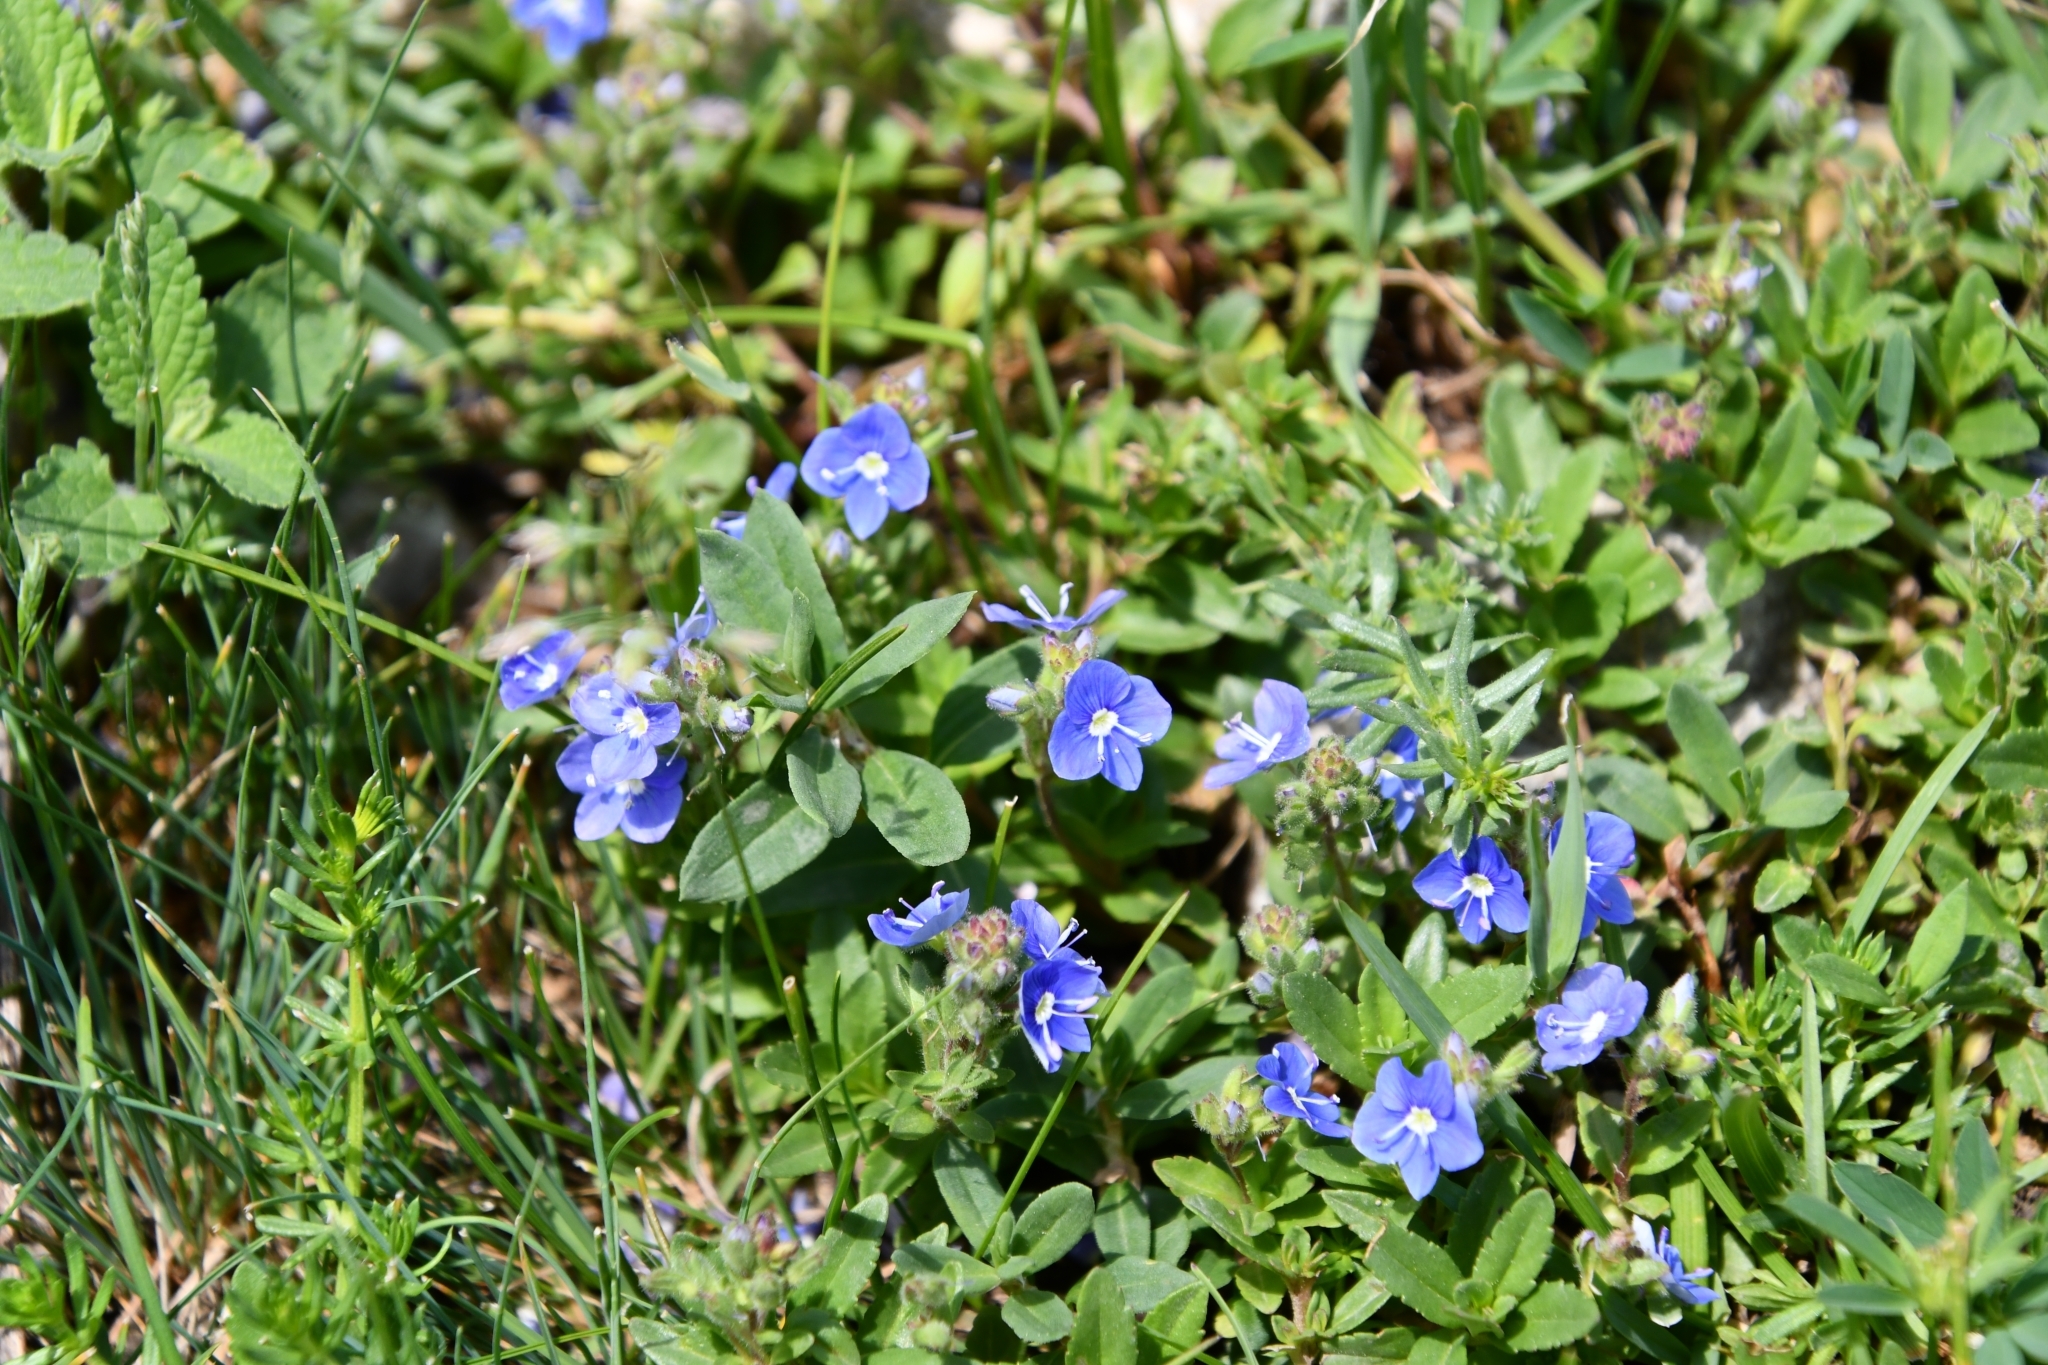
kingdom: Plantae
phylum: Tracheophyta
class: Magnoliopsida
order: Lamiales
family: Plantaginaceae
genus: Veronica
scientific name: Veronica vendettadeae
